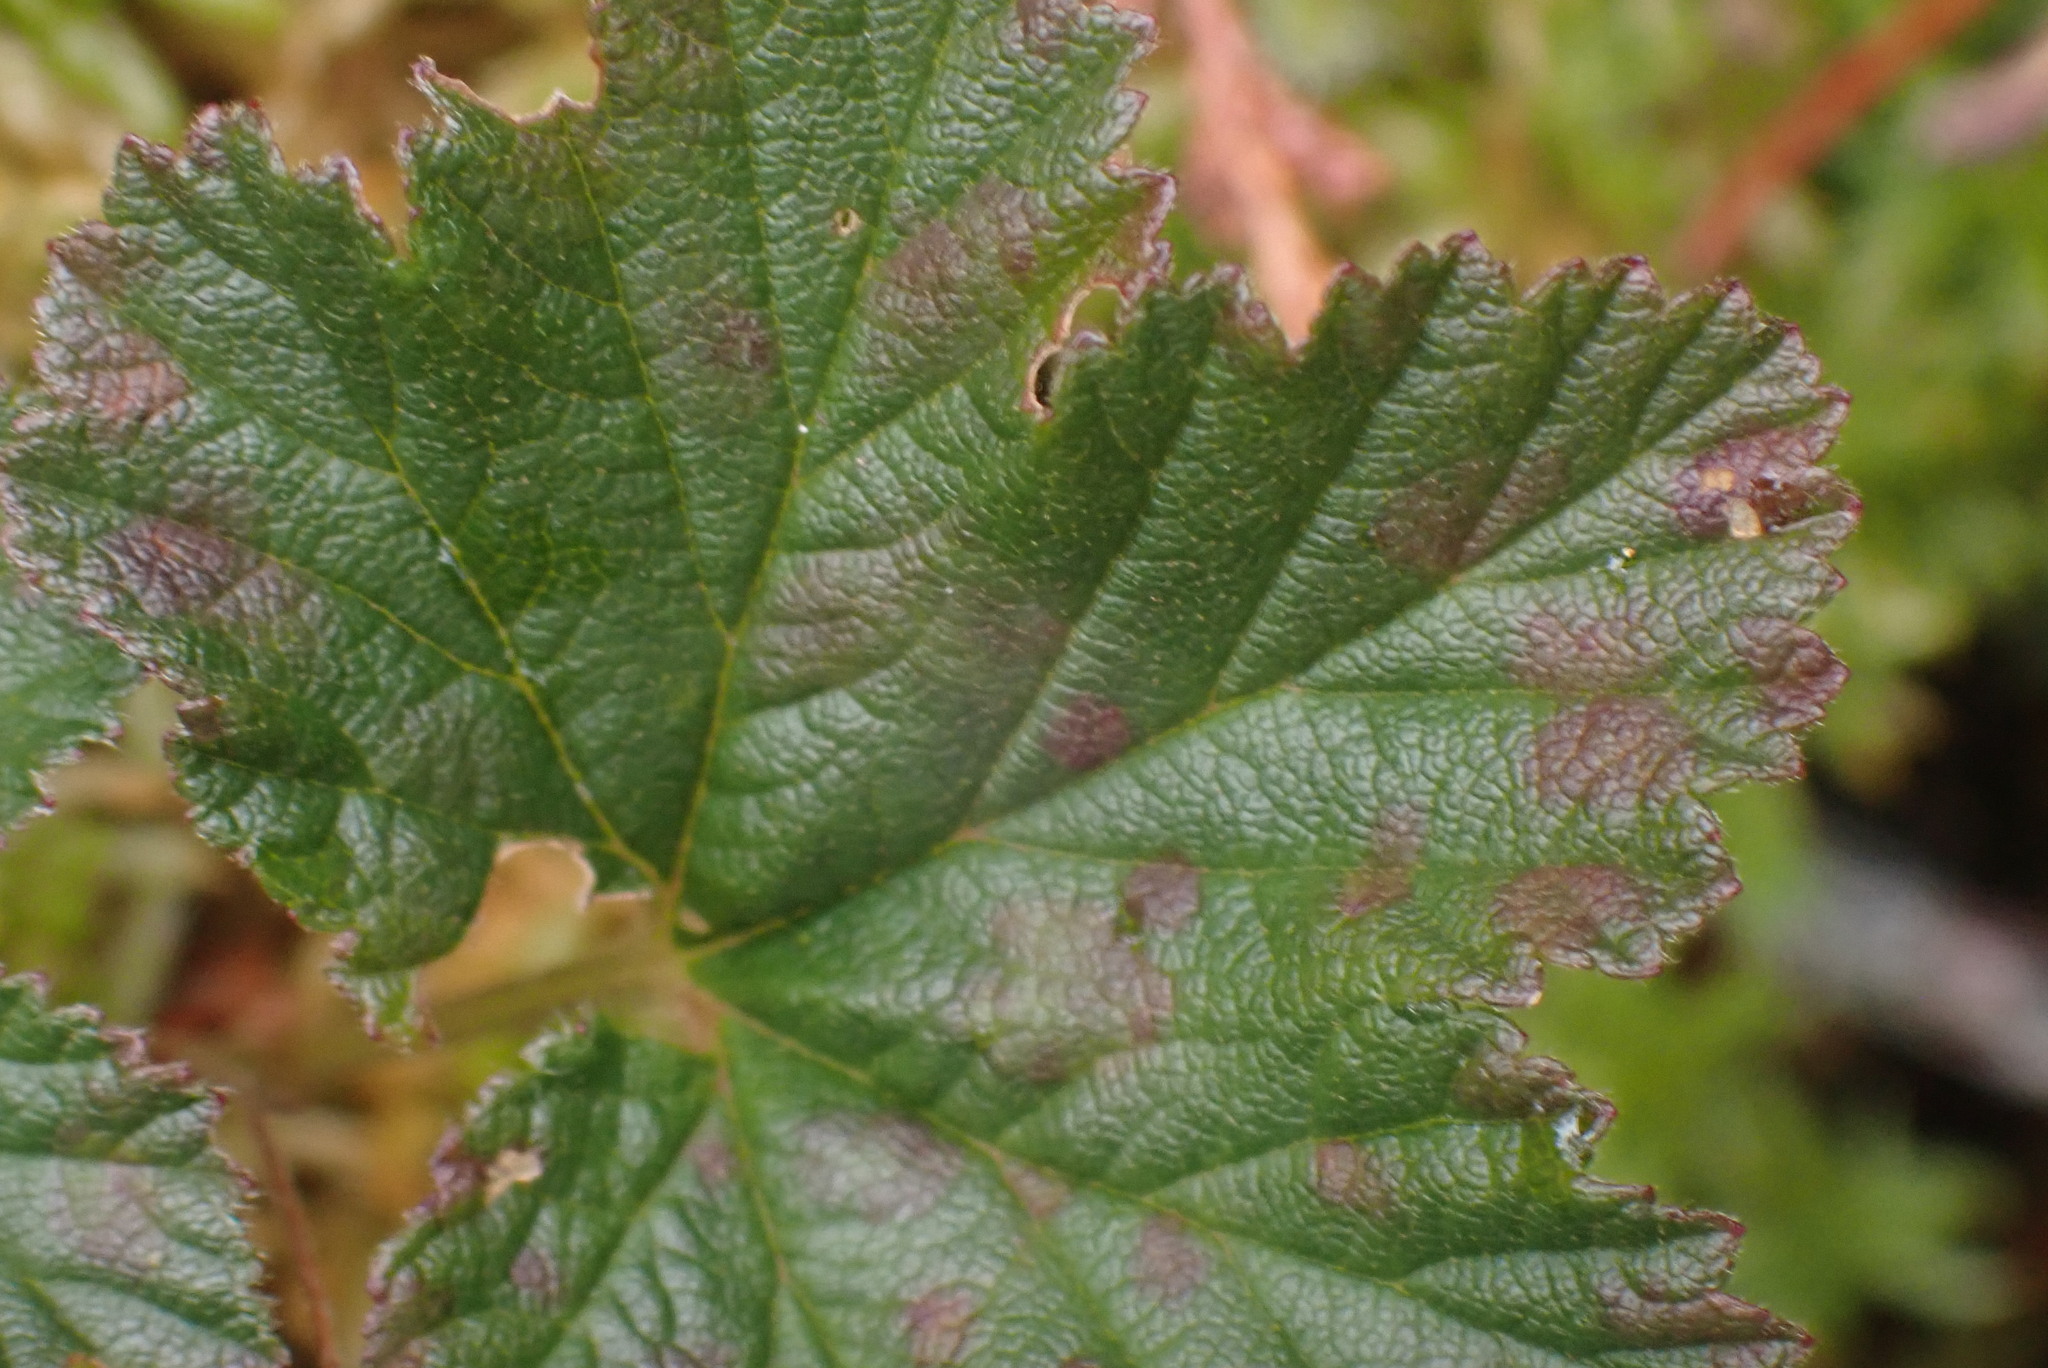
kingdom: Plantae
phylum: Tracheophyta
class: Magnoliopsida
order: Rosales
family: Rosaceae
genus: Rubus
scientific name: Rubus chamaemorus
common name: Cloudberry
